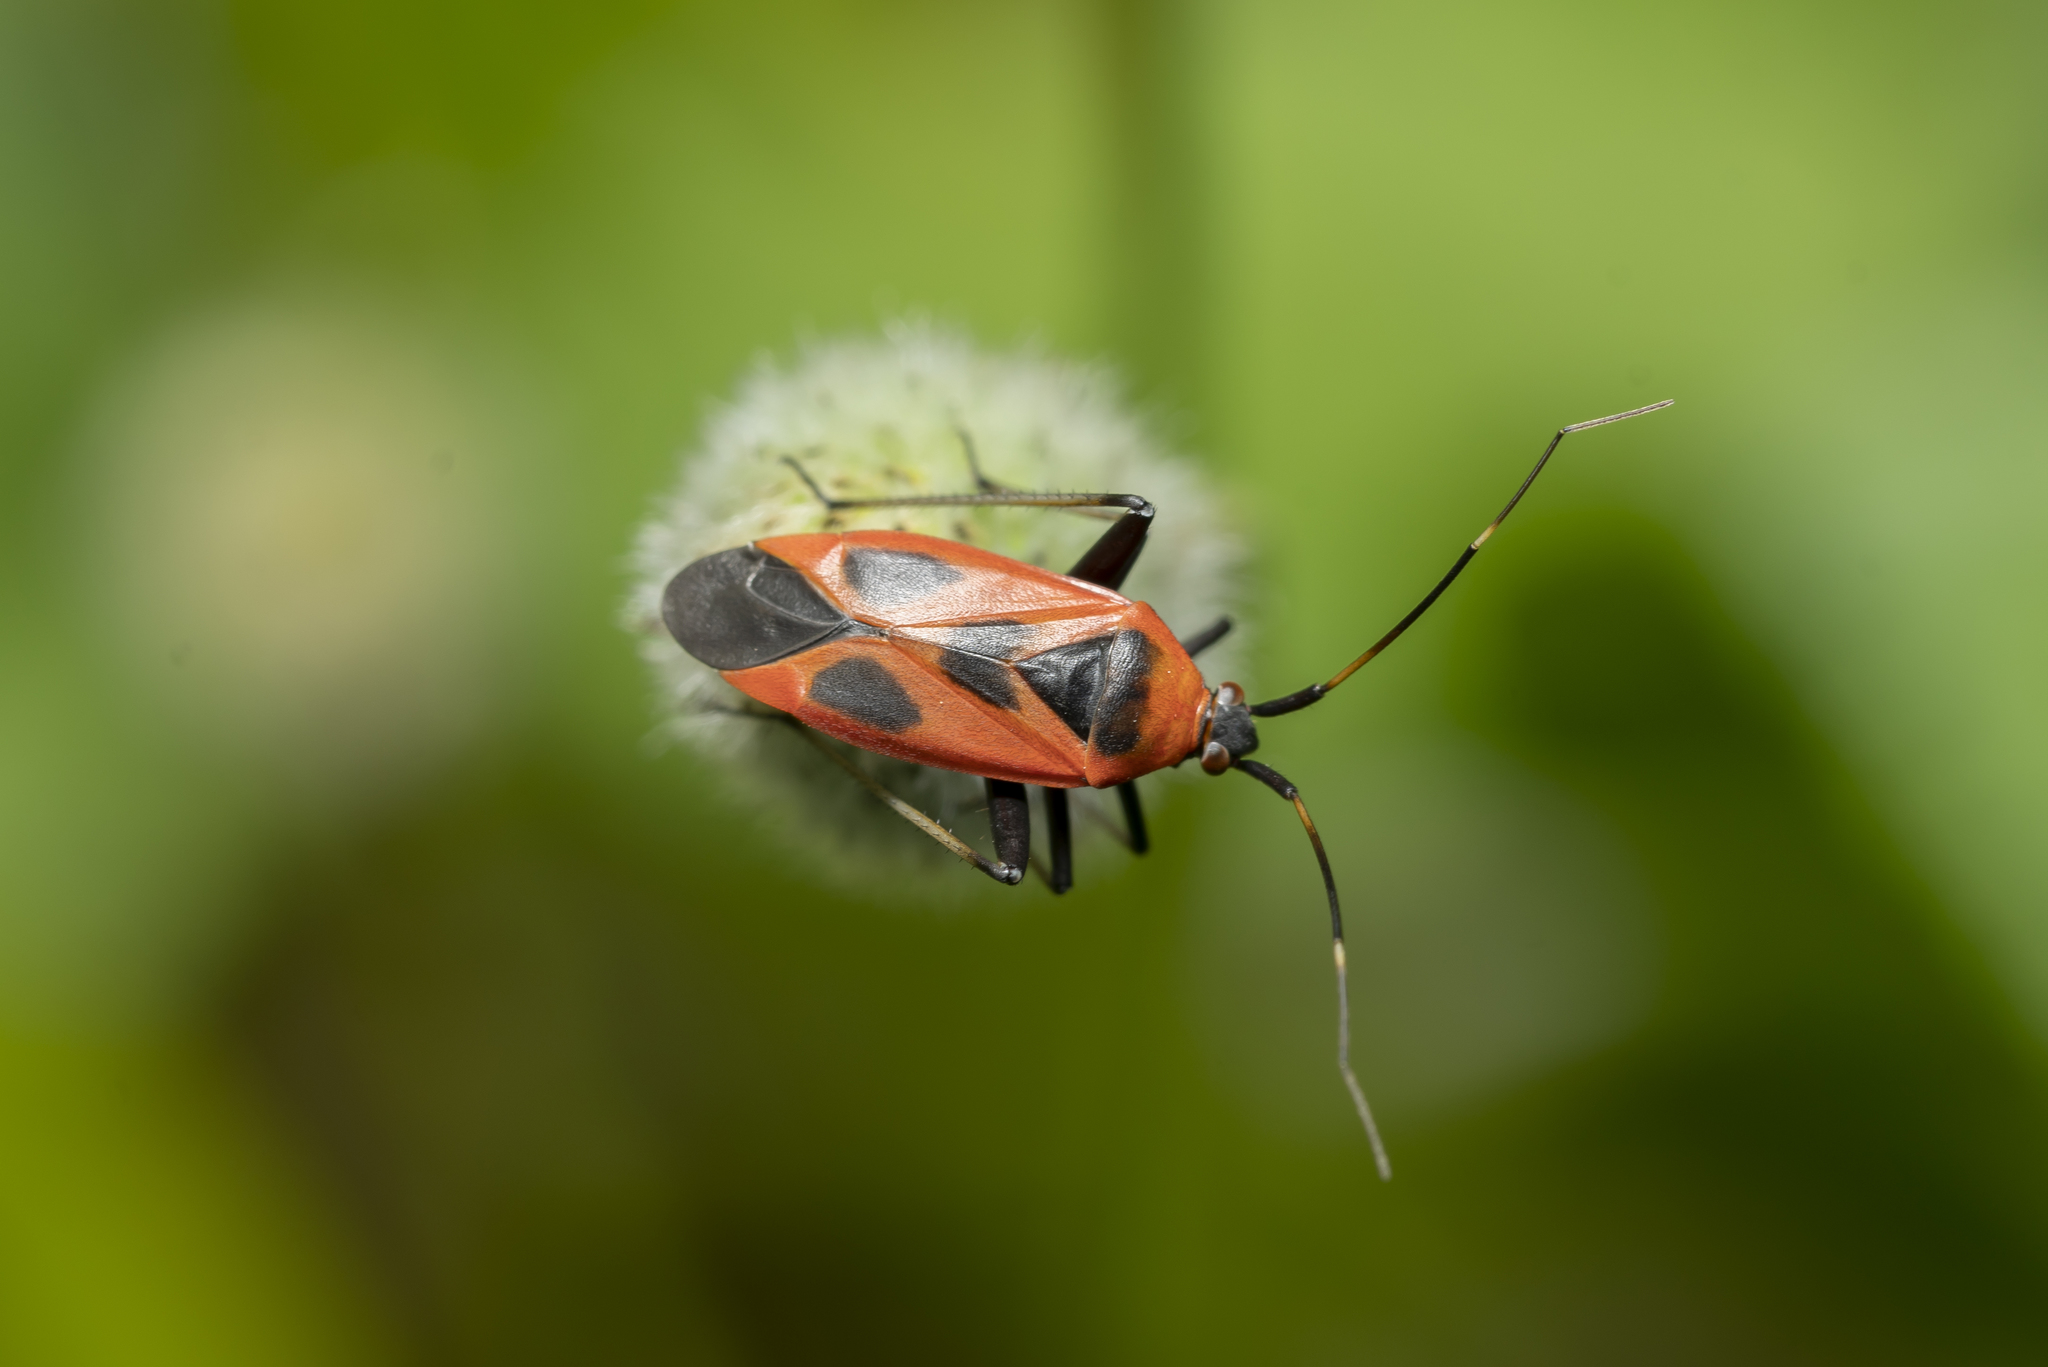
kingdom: Animalia
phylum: Arthropoda
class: Insecta
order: Hemiptera
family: Miridae
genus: Calocoris
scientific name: Calocoris nemoralis
